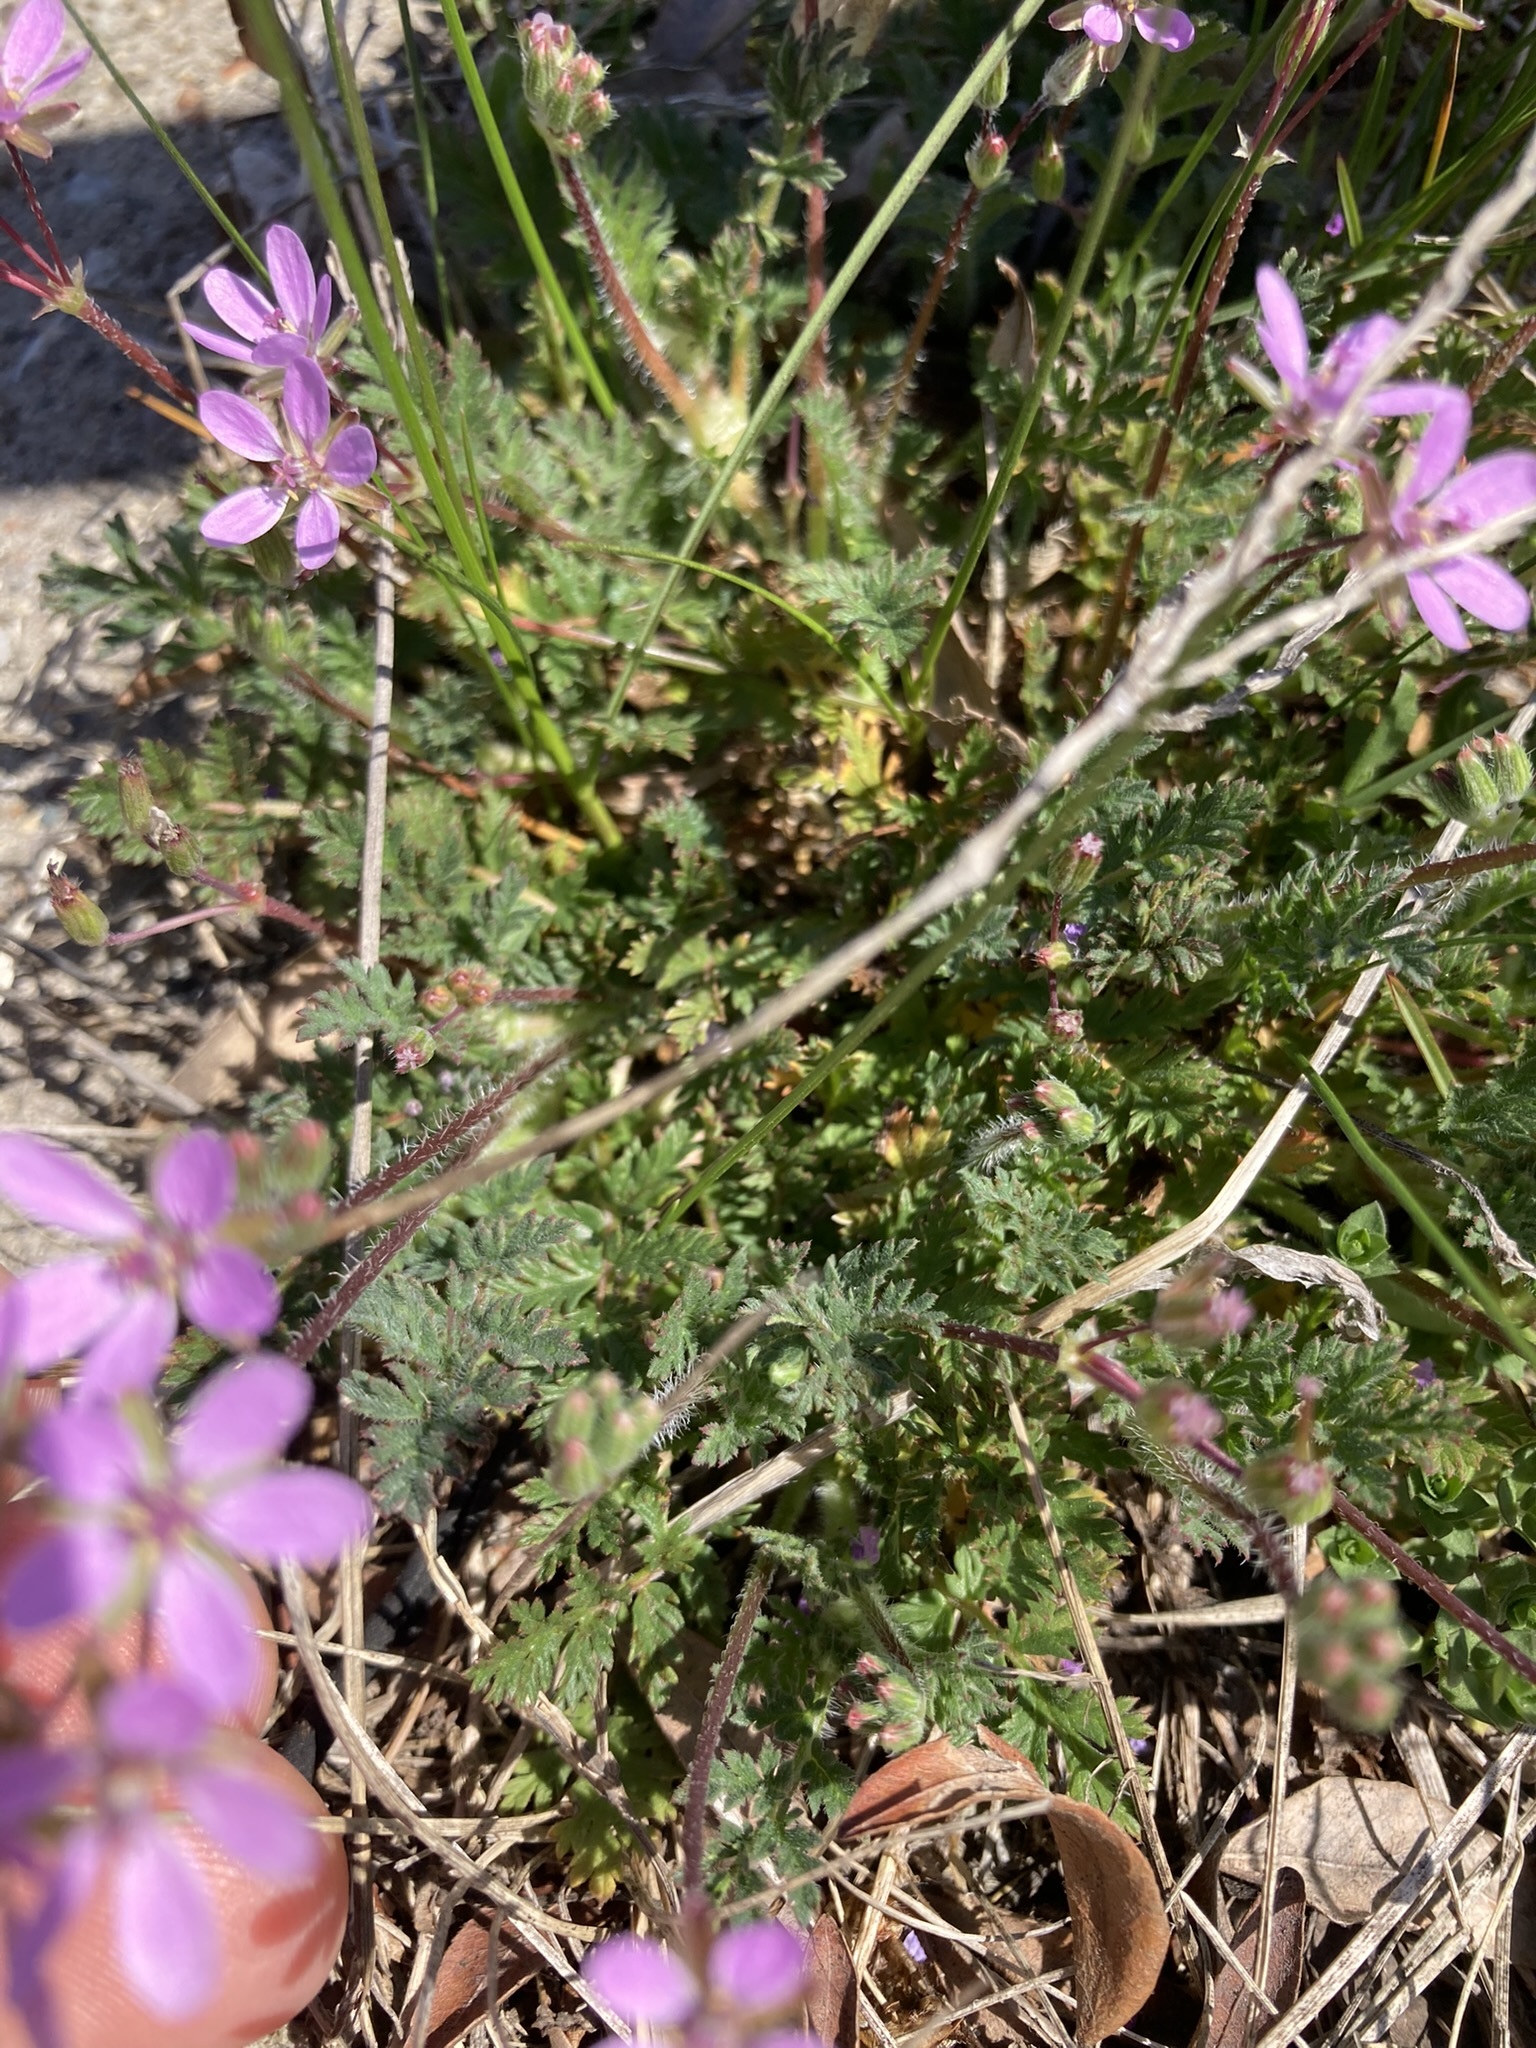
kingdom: Plantae
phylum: Tracheophyta
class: Magnoliopsida
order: Geraniales
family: Geraniaceae
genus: Erodium
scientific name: Erodium cicutarium
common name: Common stork's-bill
